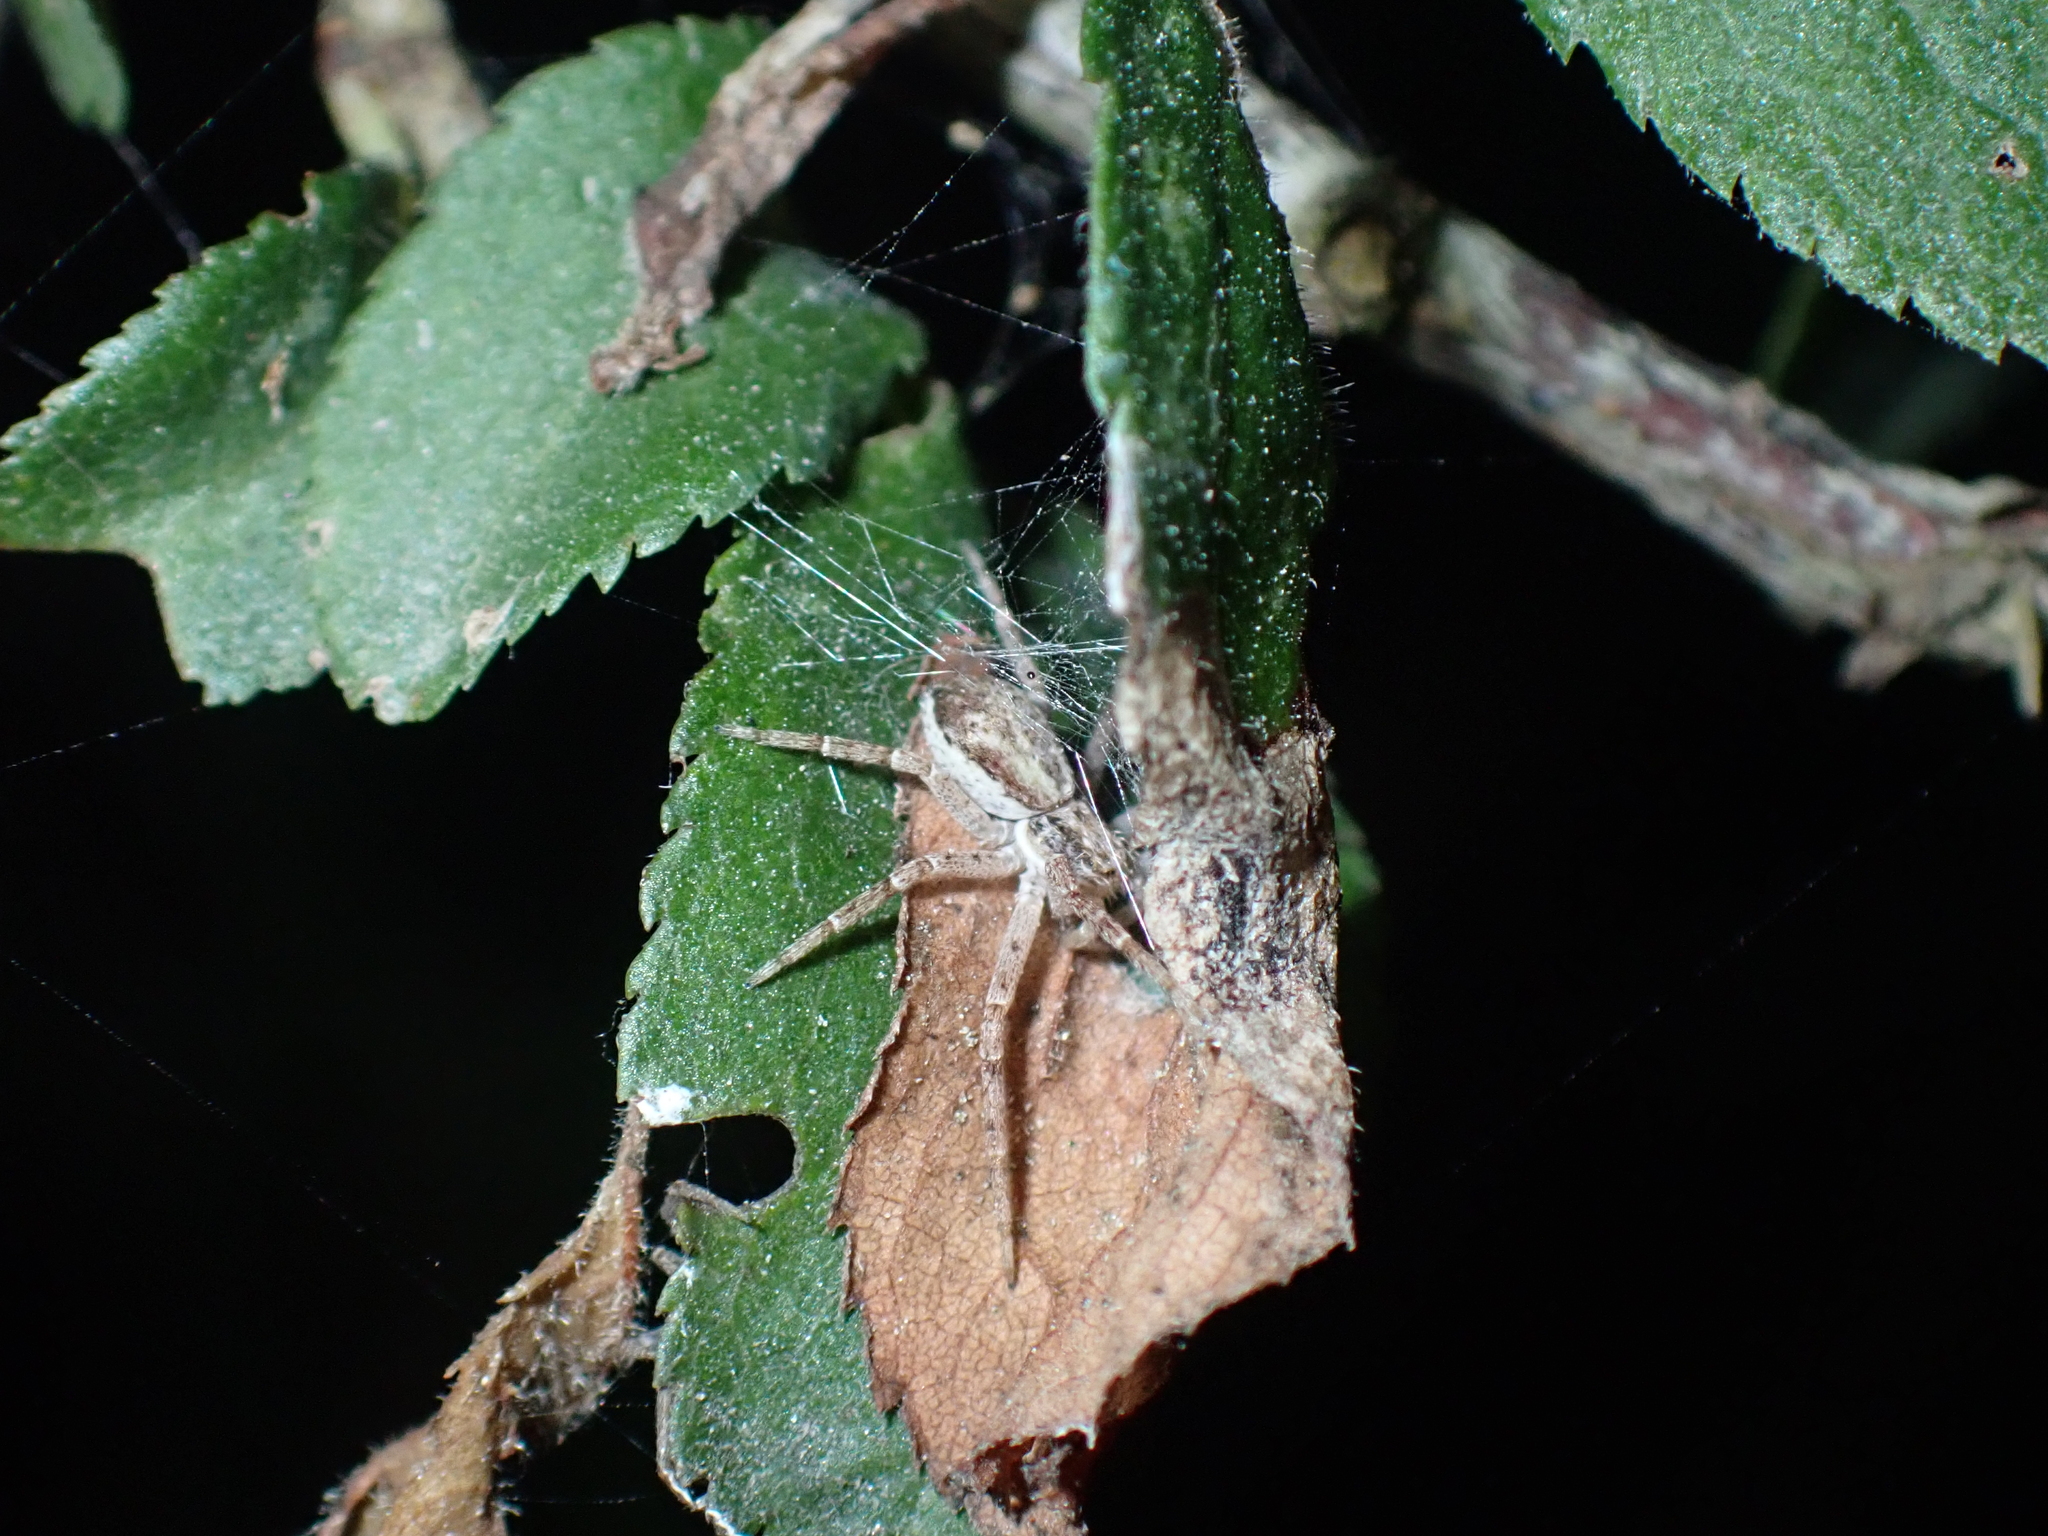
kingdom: Animalia
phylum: Arthropoda
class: Arachnida
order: Araneae
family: Philodromidae
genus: Philodromus
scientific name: Philodromus dispar
